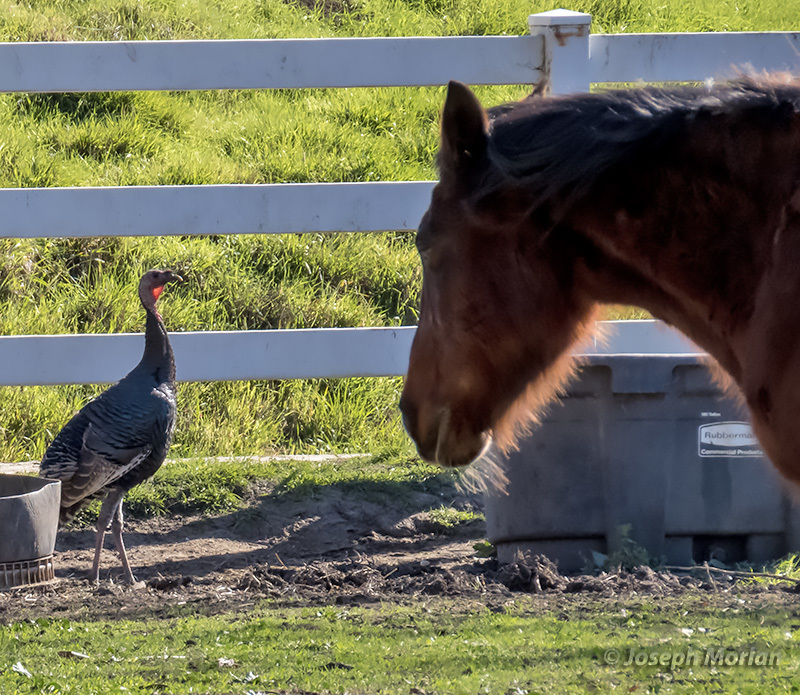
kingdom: Animalia
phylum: Chordata
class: Aves
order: Galliformes
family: Phasianidae
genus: Meleagris
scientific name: Meleagris gallopavo
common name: Wild turkey
